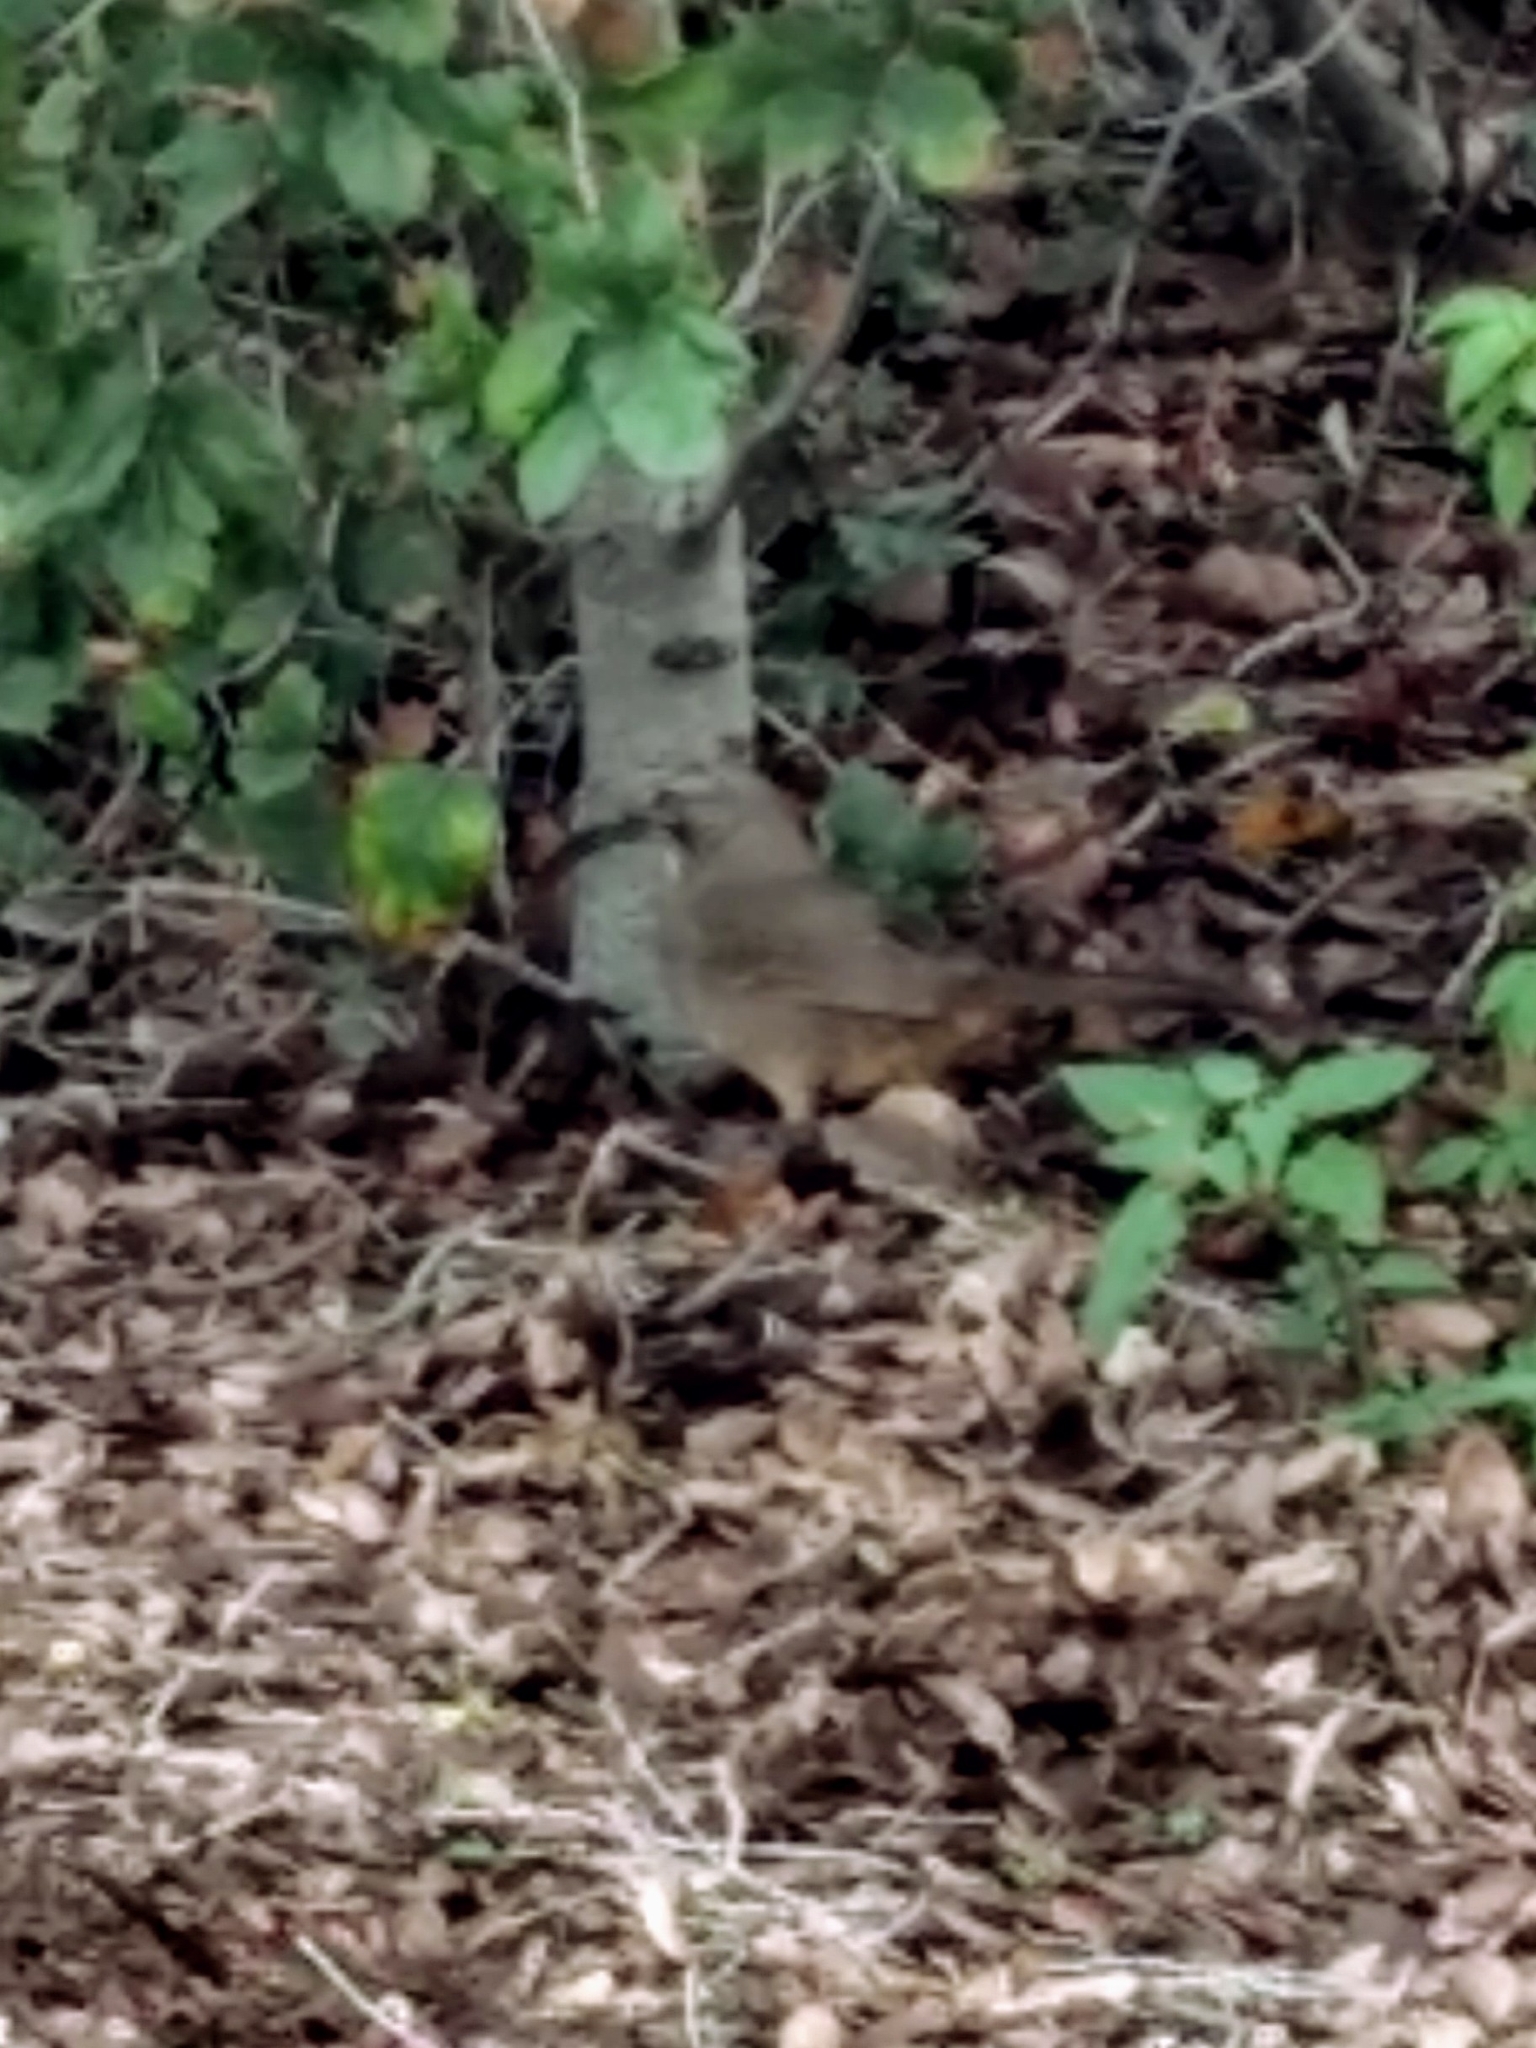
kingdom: Animalia
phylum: Chordata
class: Aves
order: Passeriformes
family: Mimidae
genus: Toxostoma
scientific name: Toxostoma redivivum
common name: California thrasher
